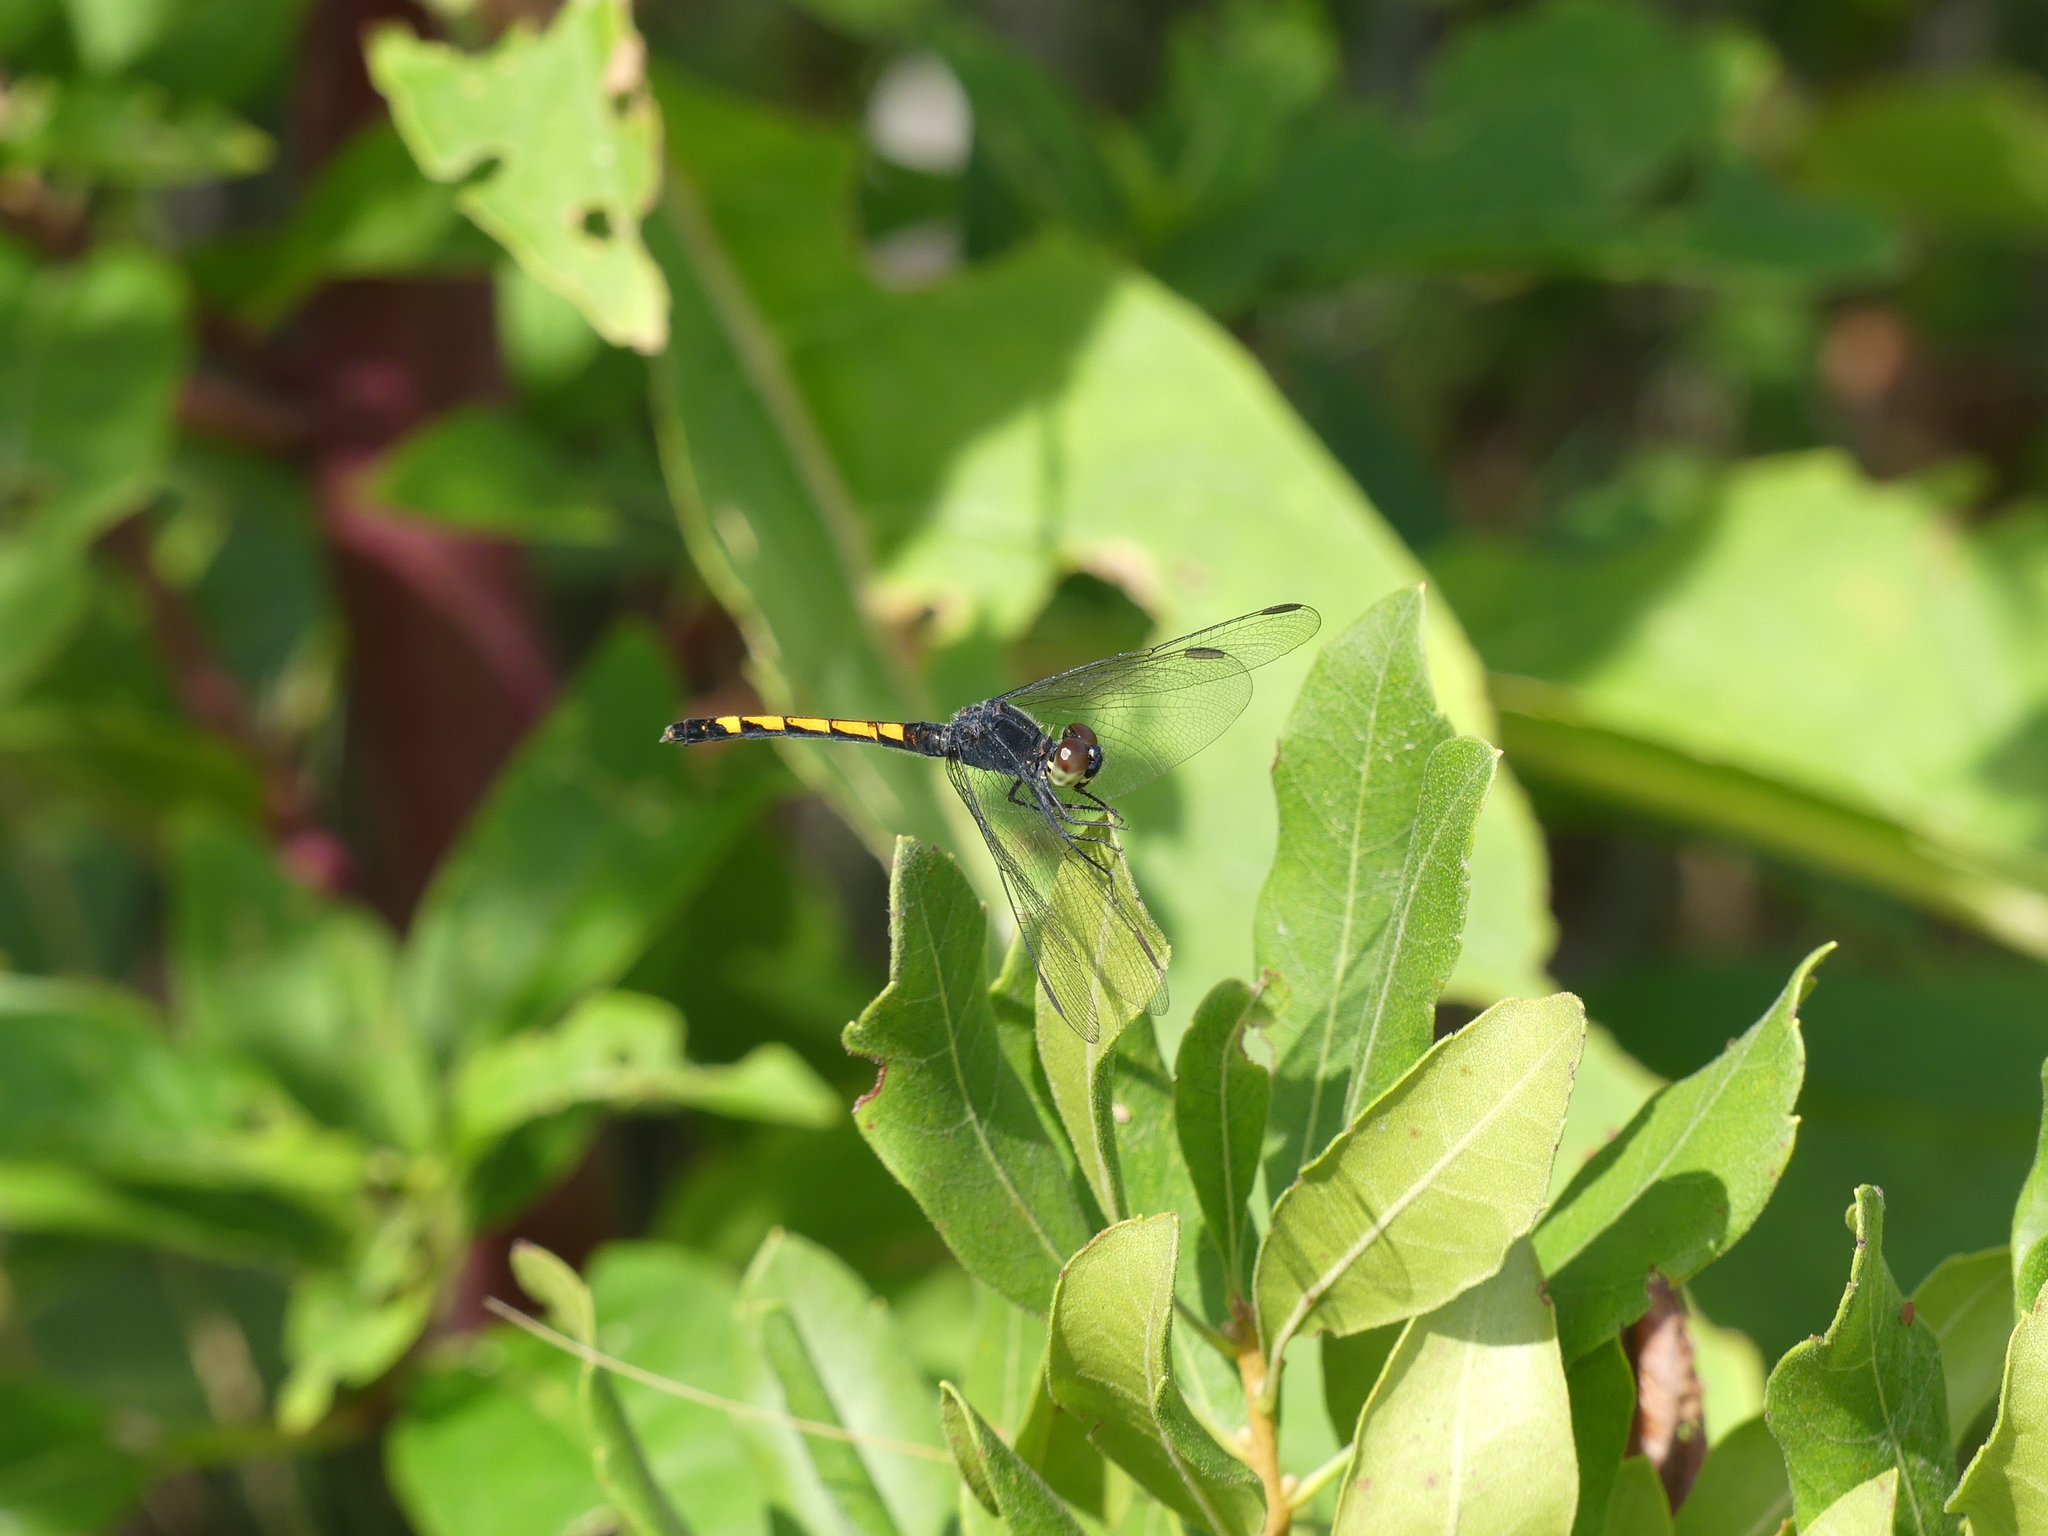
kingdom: Animalia
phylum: Arthropoda
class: Insecta
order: Odonata
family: Libellulidae
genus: Erythrodiplax
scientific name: Erythrodiplax berenice
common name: Seaside dragonlet
